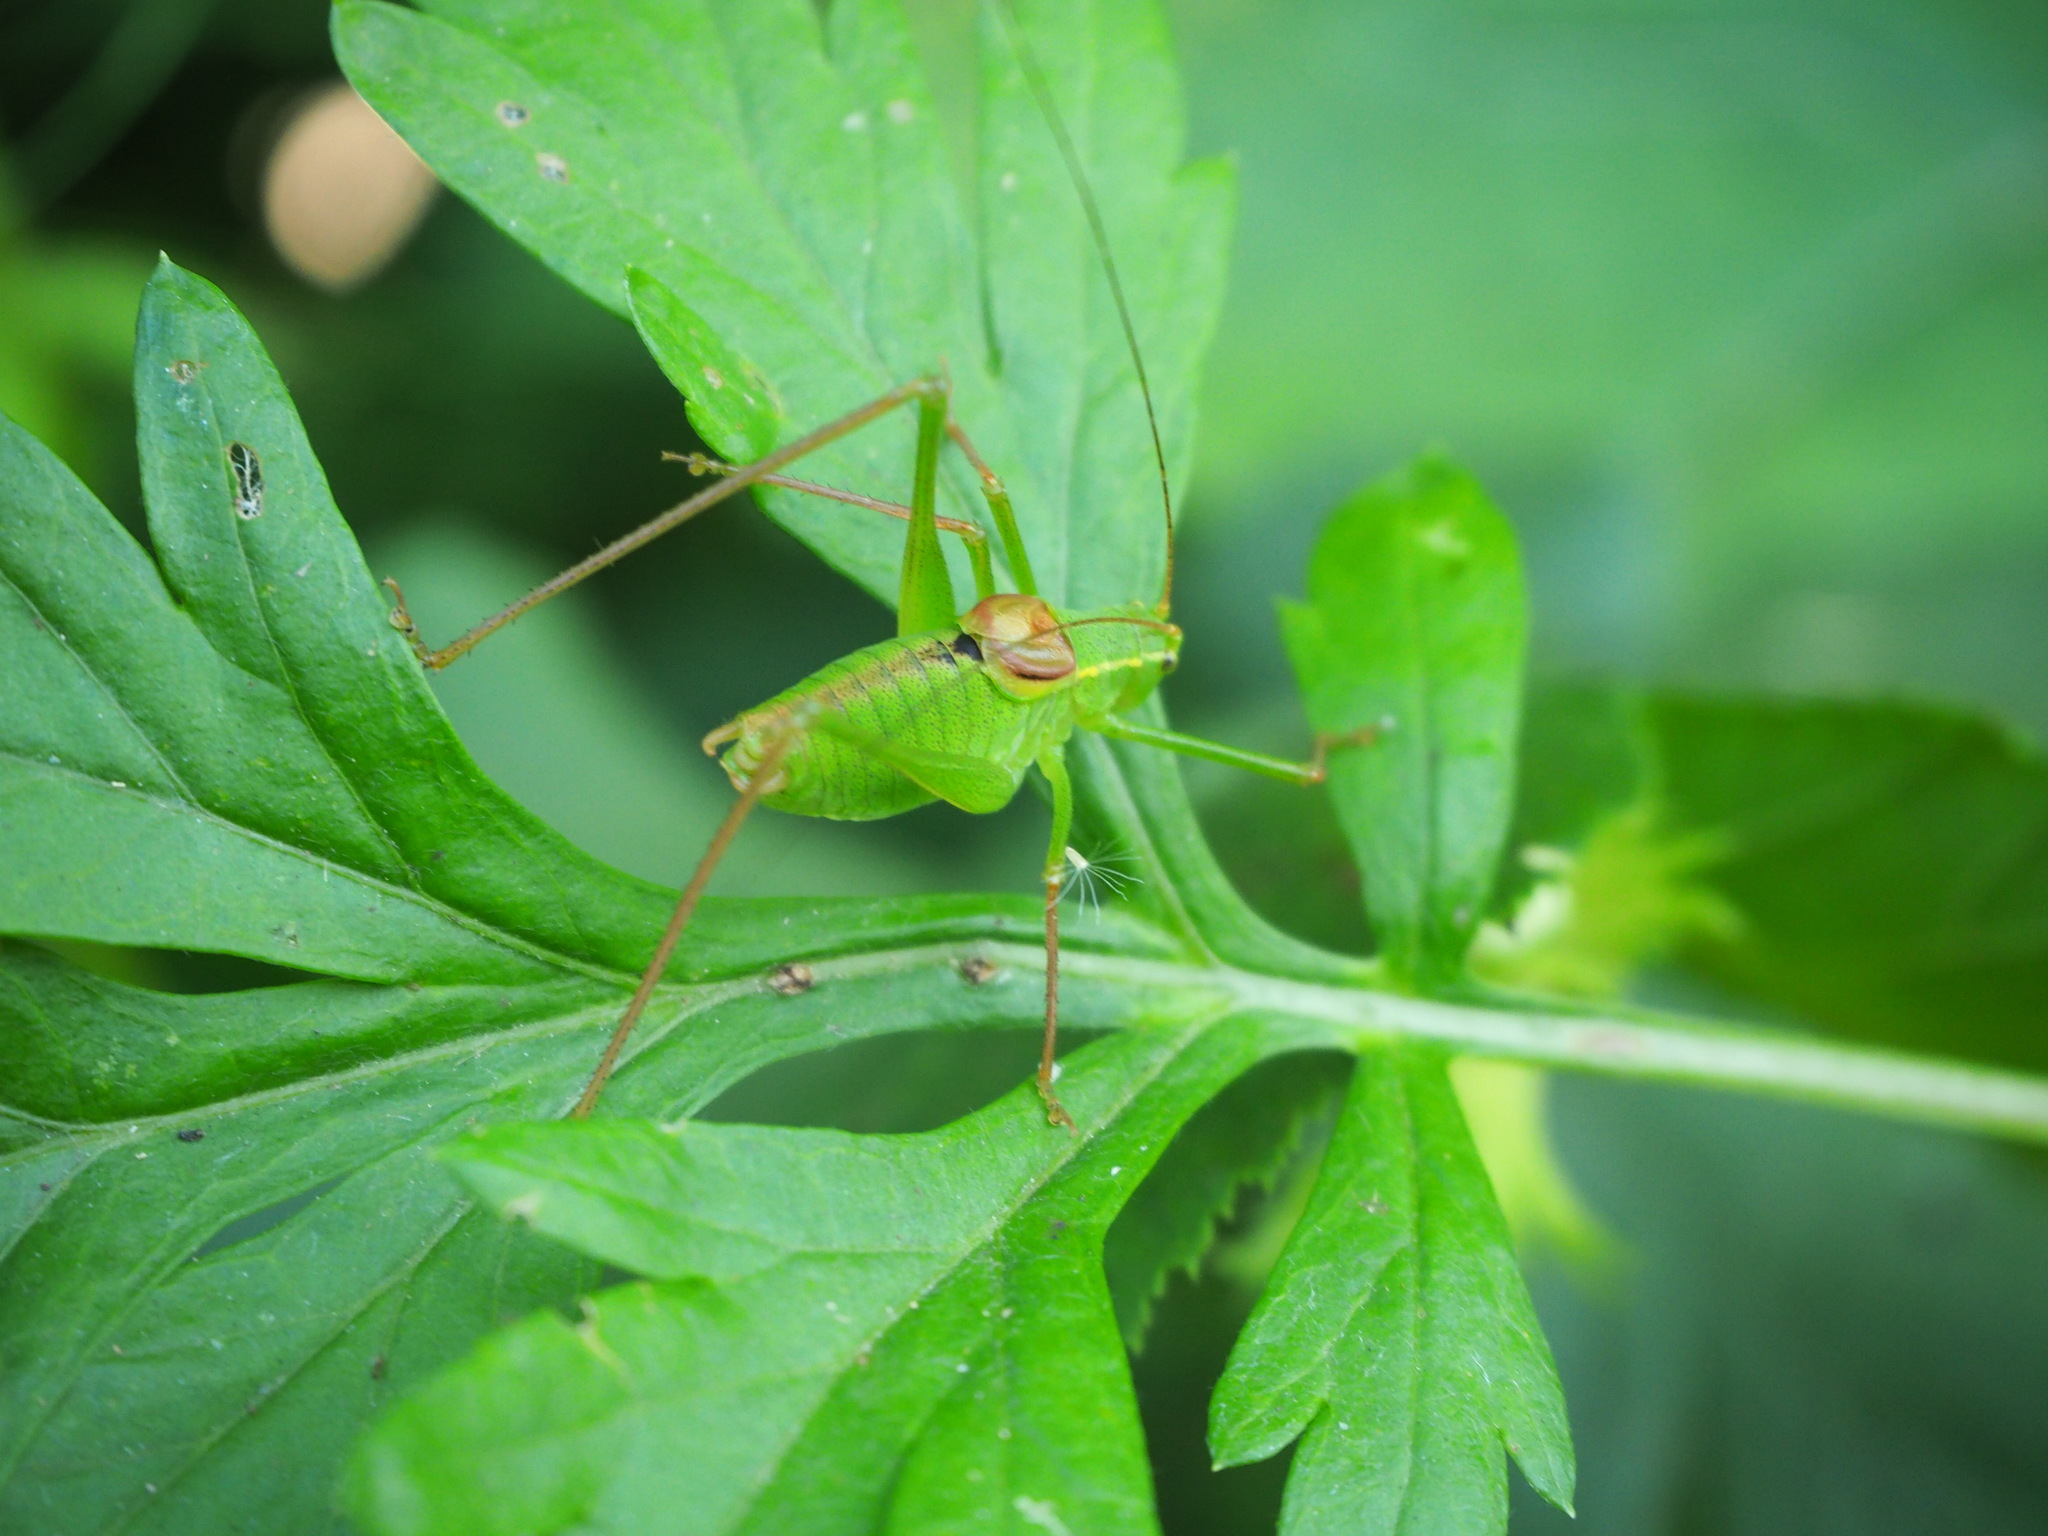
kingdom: Animalia
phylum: Arthropoda
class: Insecta
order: Orthoptera
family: Tettigoniidae
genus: Leptophyes
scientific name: Leptophyes laticauda
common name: Long-tailed speckled bush-cricket
